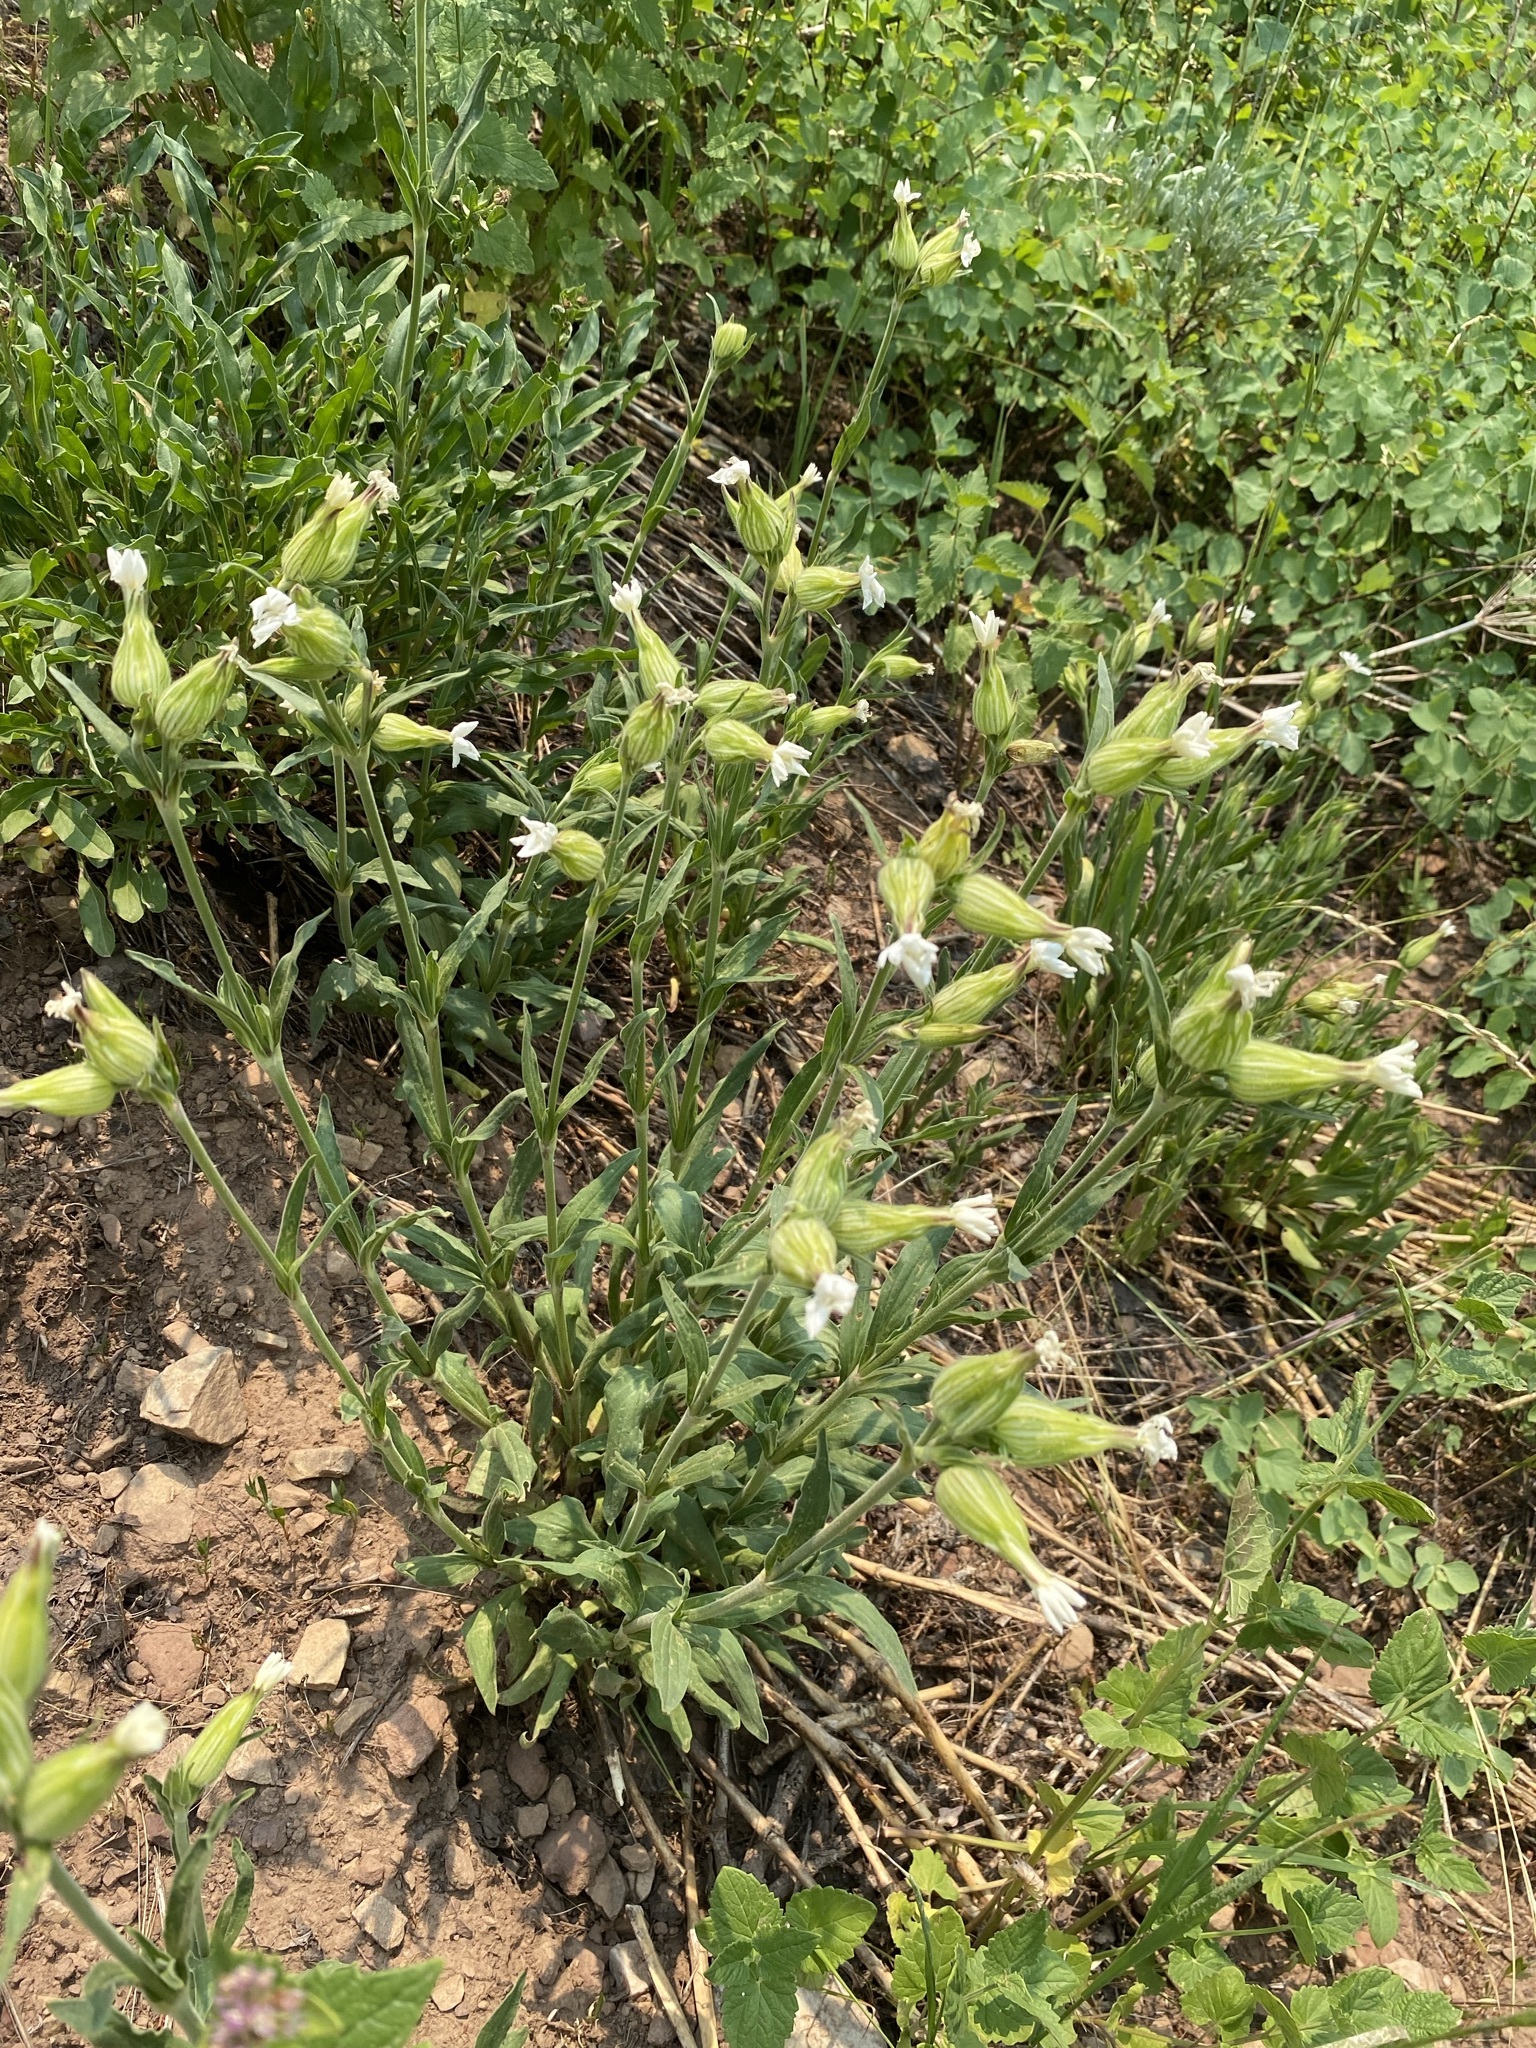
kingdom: Plantae
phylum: Tracheophyta
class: Magnoliopsida
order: Caryophyllales
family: Caryophyllaceae
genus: Silene
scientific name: Silene latifolia
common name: White campion
